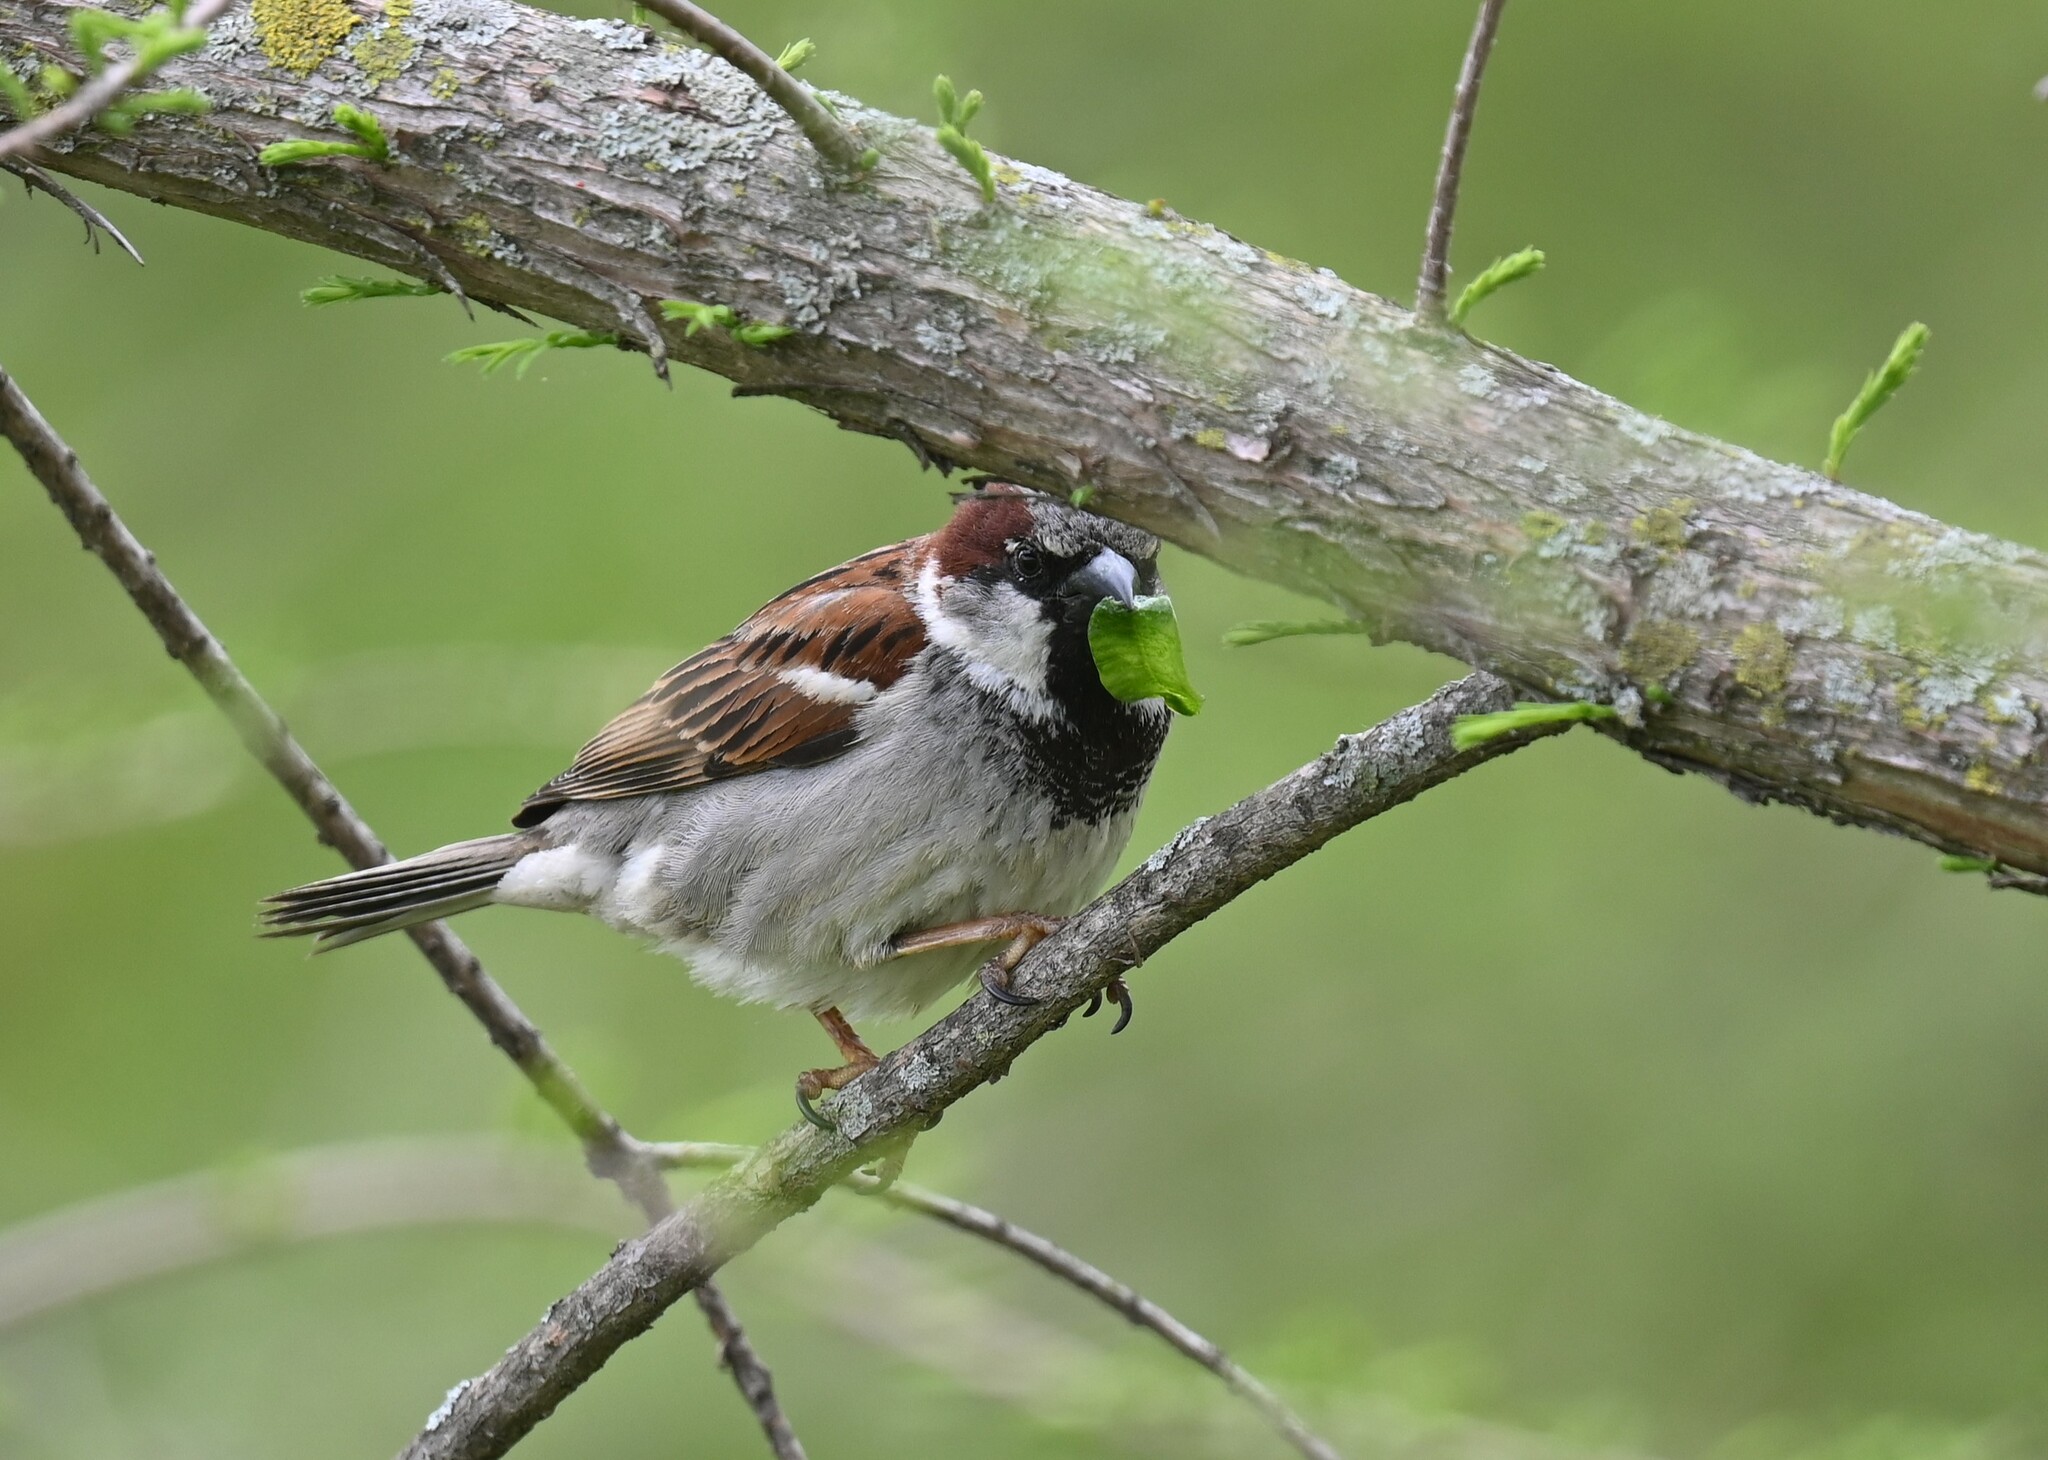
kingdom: Animalia
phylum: Chordata
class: Aves
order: Passeriformes
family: Passeridae
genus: Passer
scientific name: Passer domesticus
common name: House sparrow
